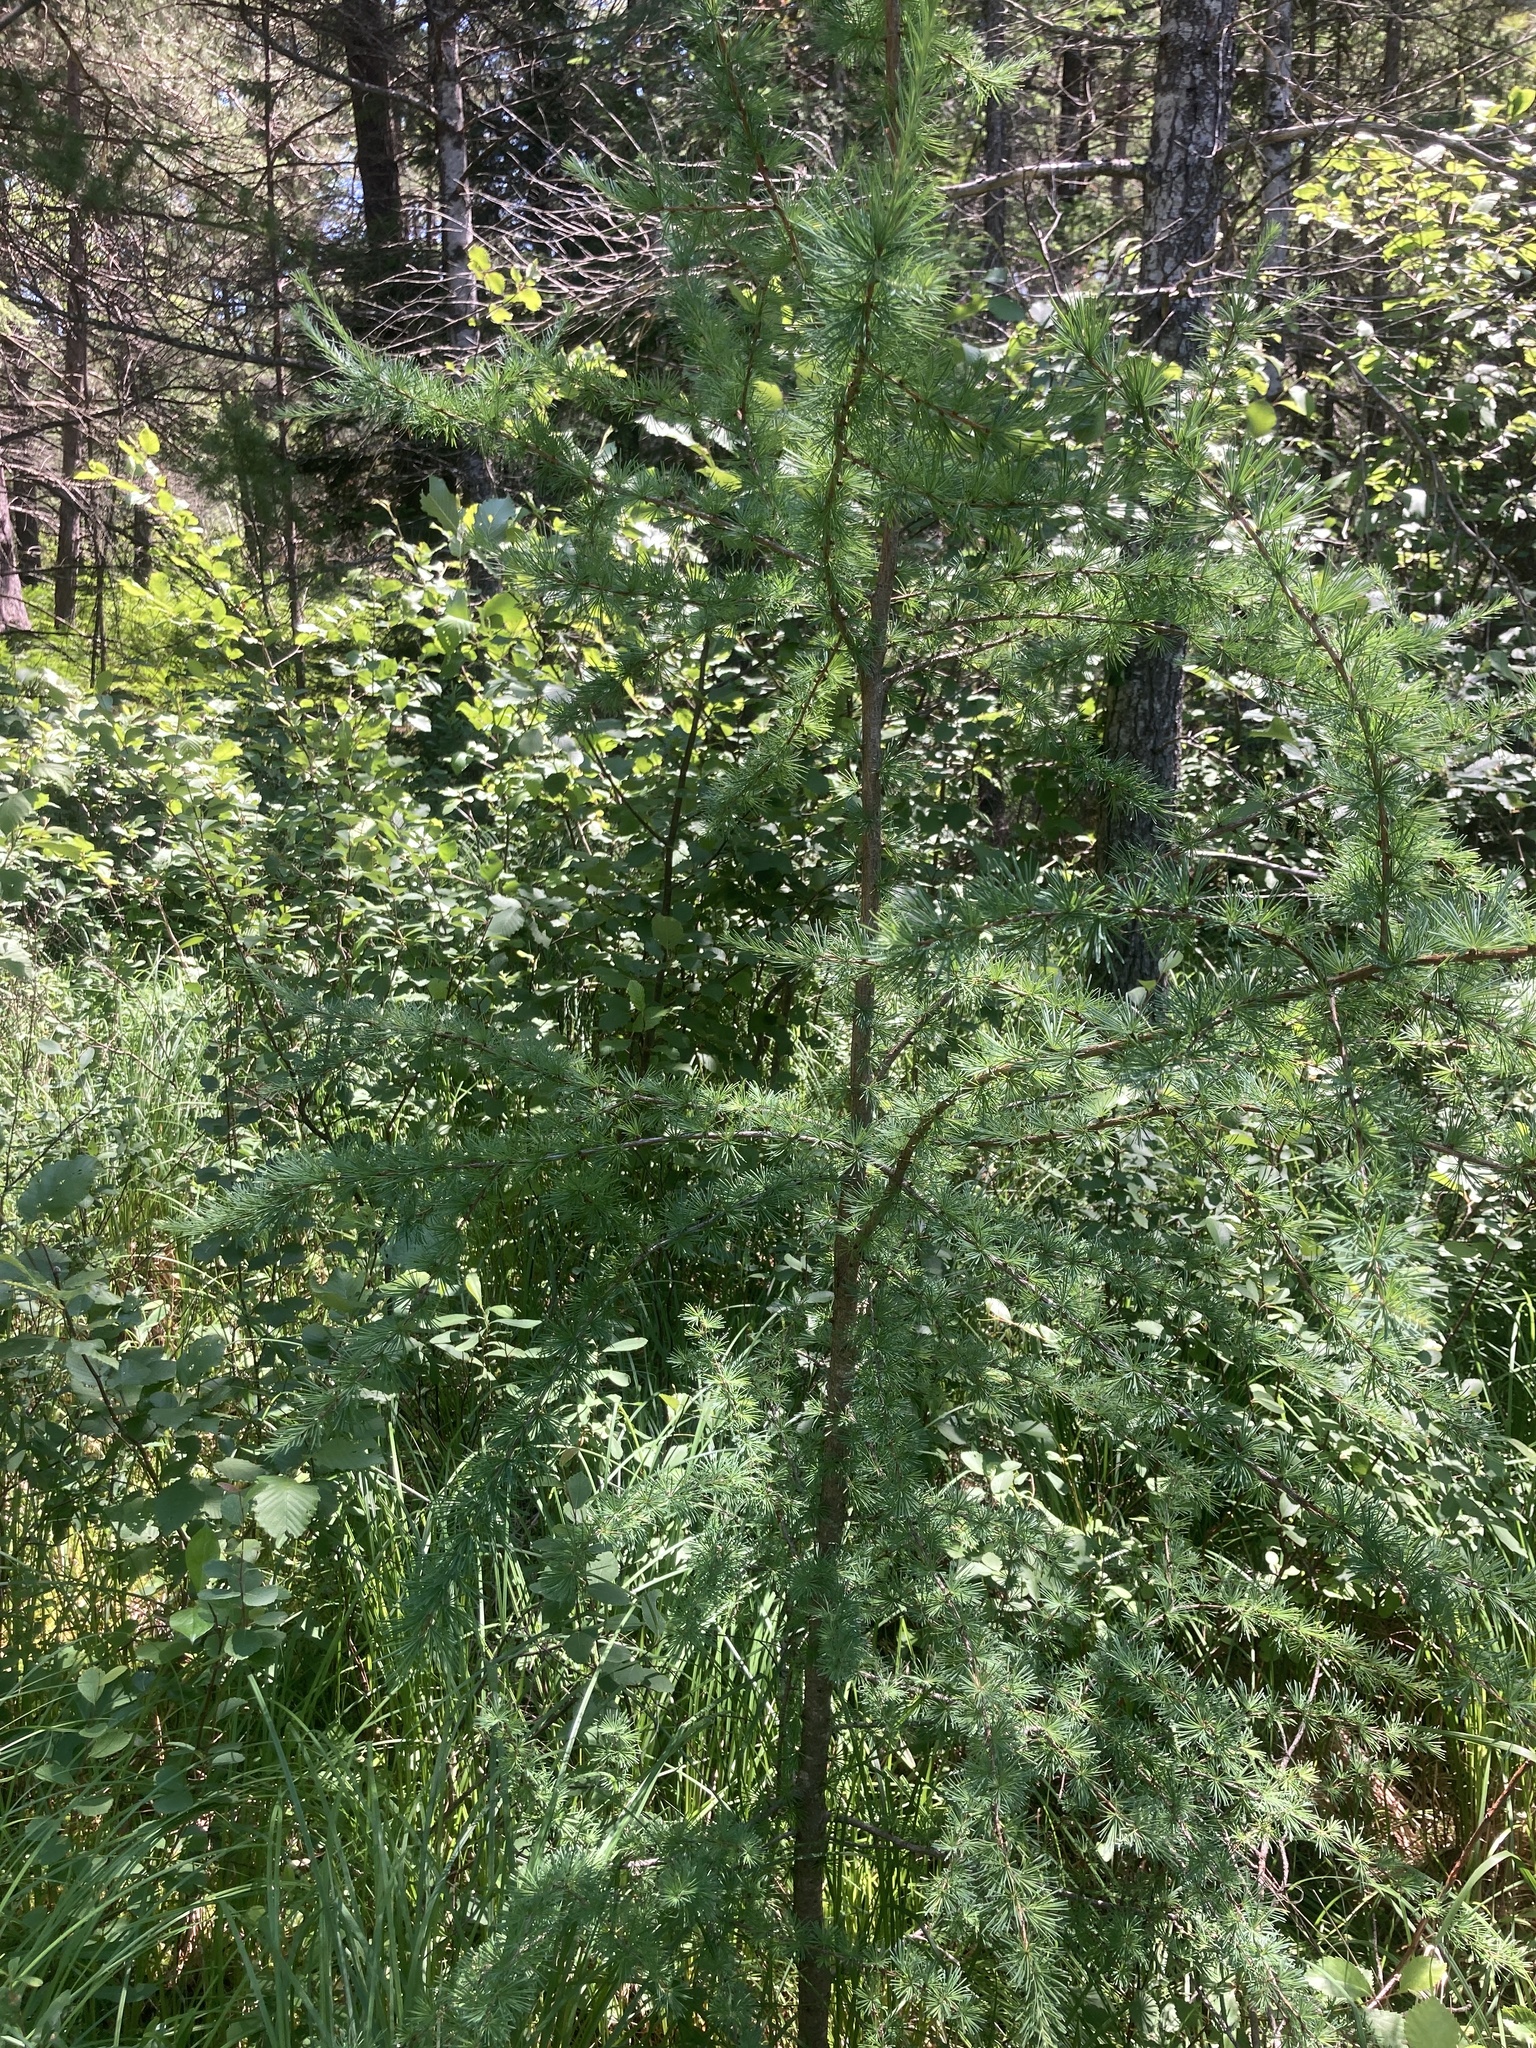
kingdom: Plantae
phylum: Tracheophyta
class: Pinopsida
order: Pinales
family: Pinaceae
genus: Larix
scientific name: Larix laricina
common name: American larch
